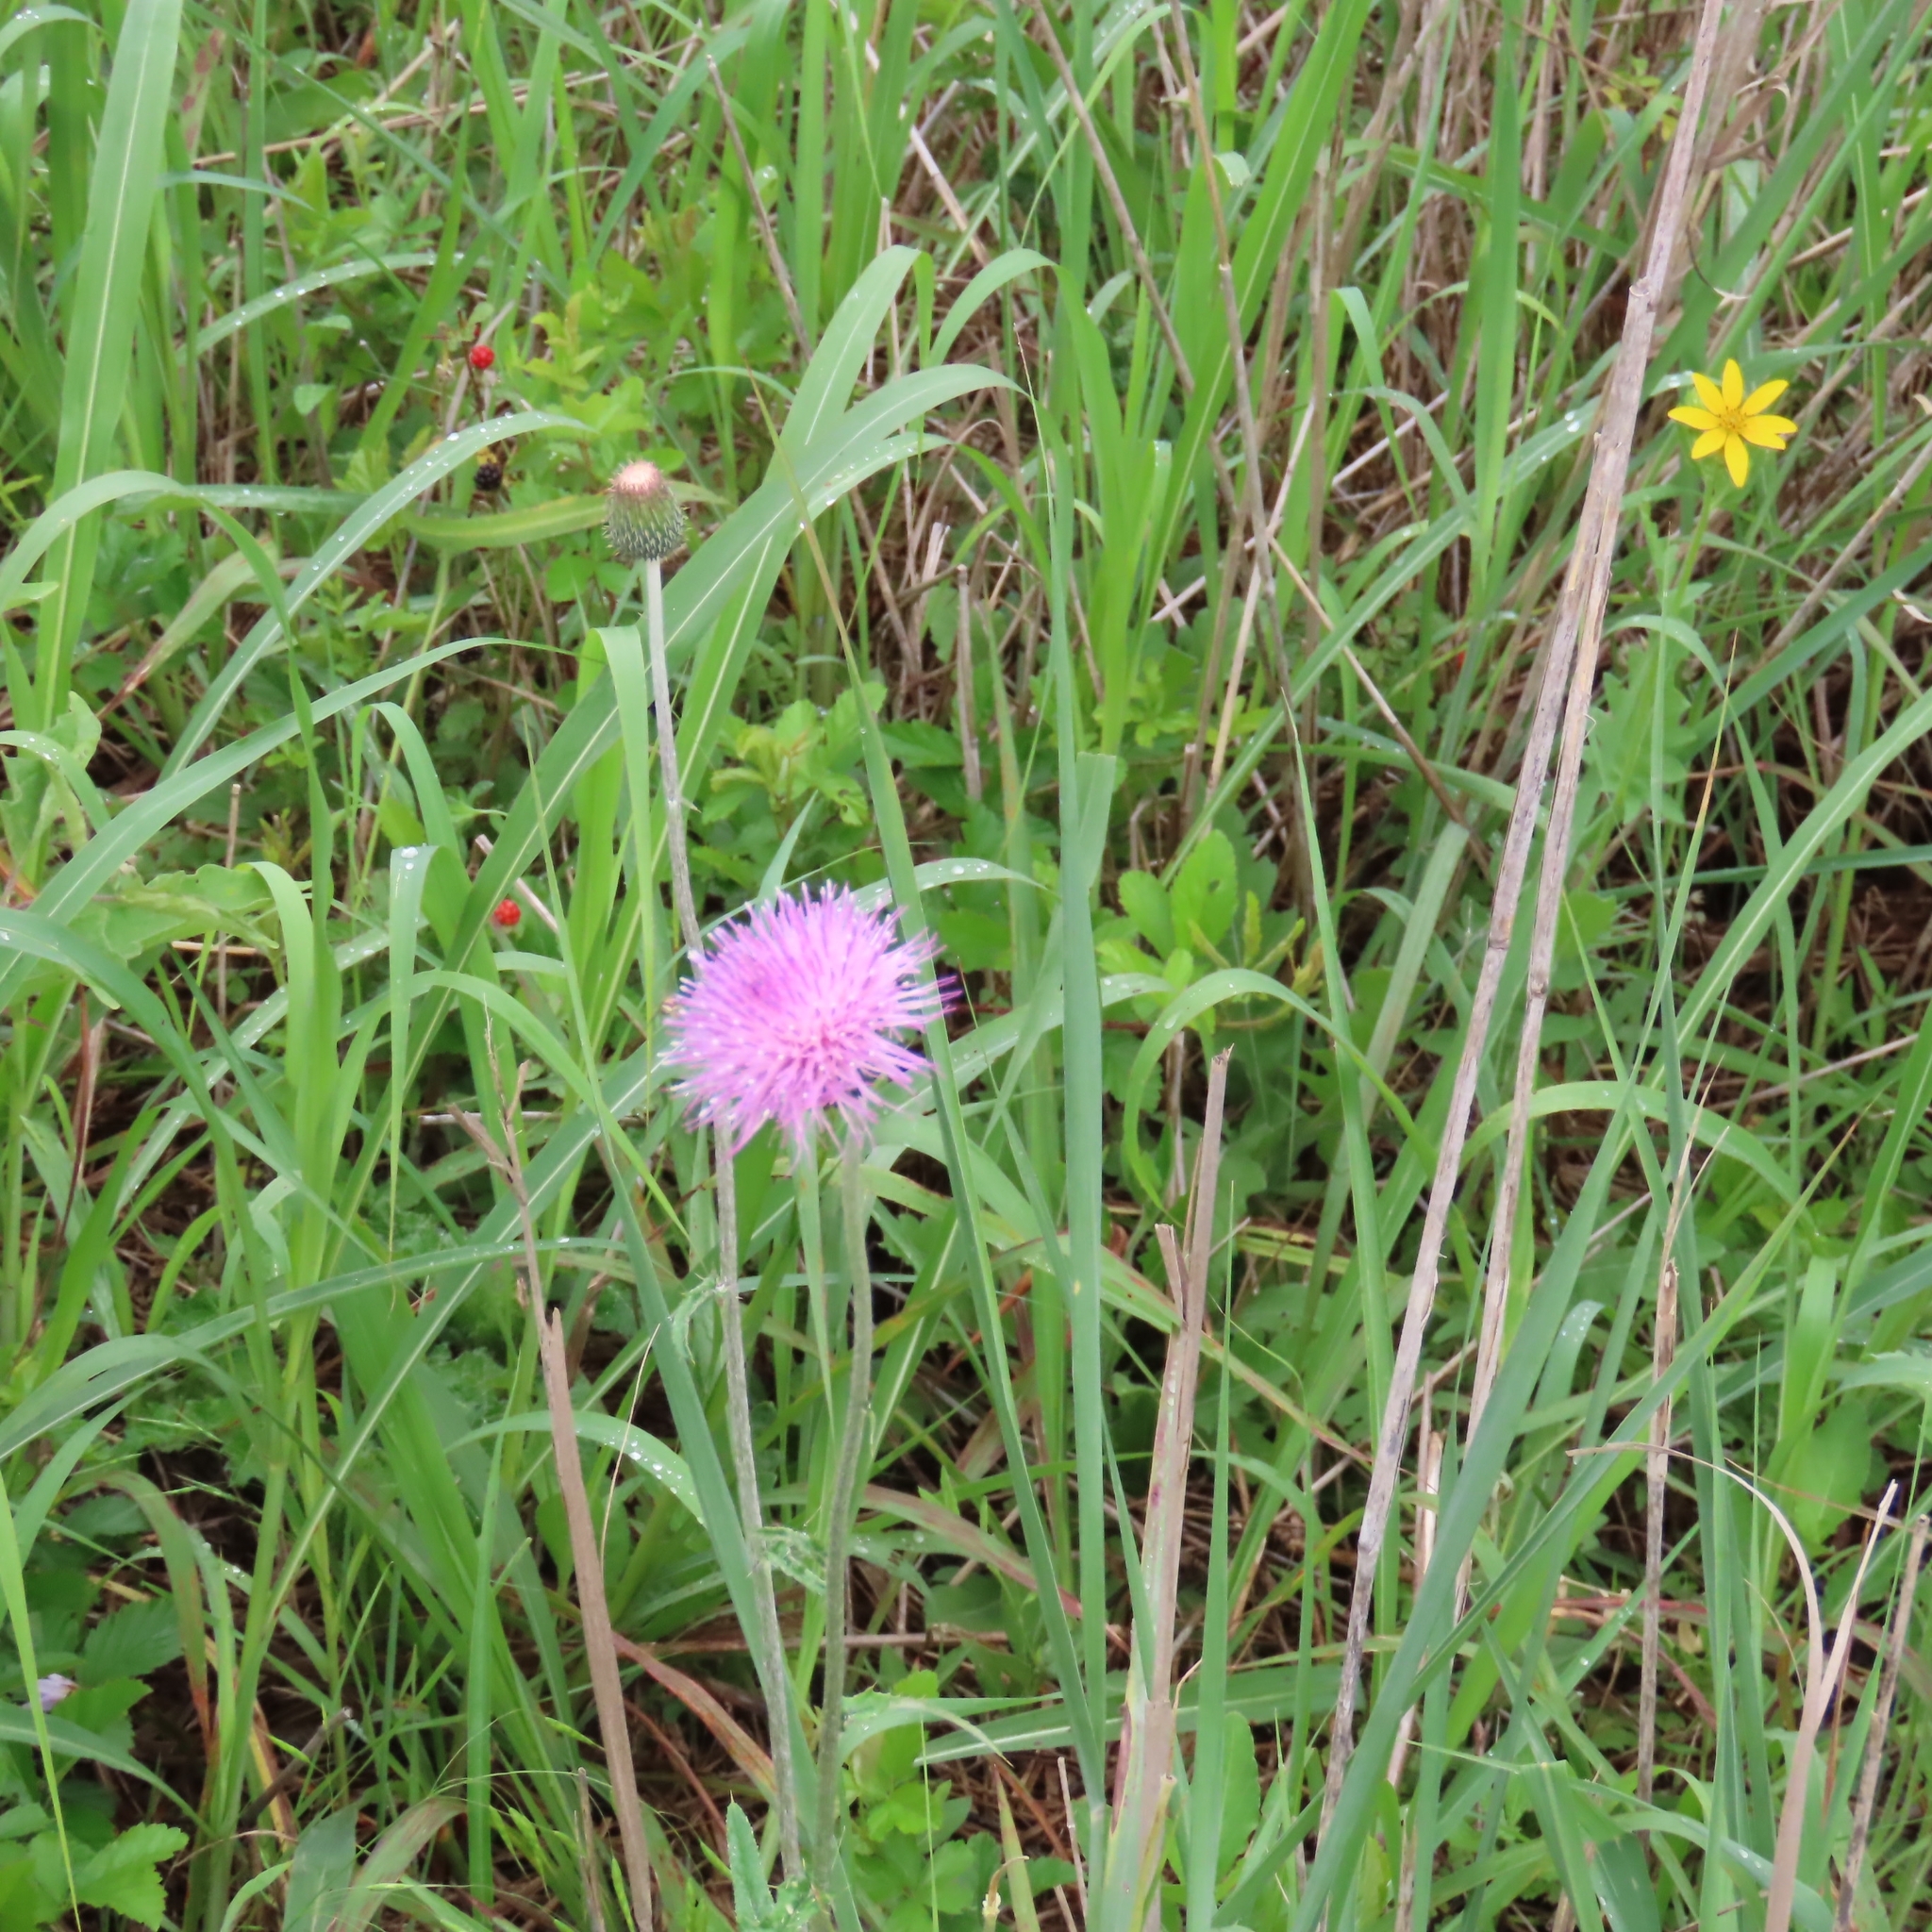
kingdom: Plantae
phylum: Tracheophyta
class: Magnoliopsida
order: Asterales
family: Asteraceae
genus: Cirsium
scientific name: Cirsium texanum
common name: Texas purple thistle
